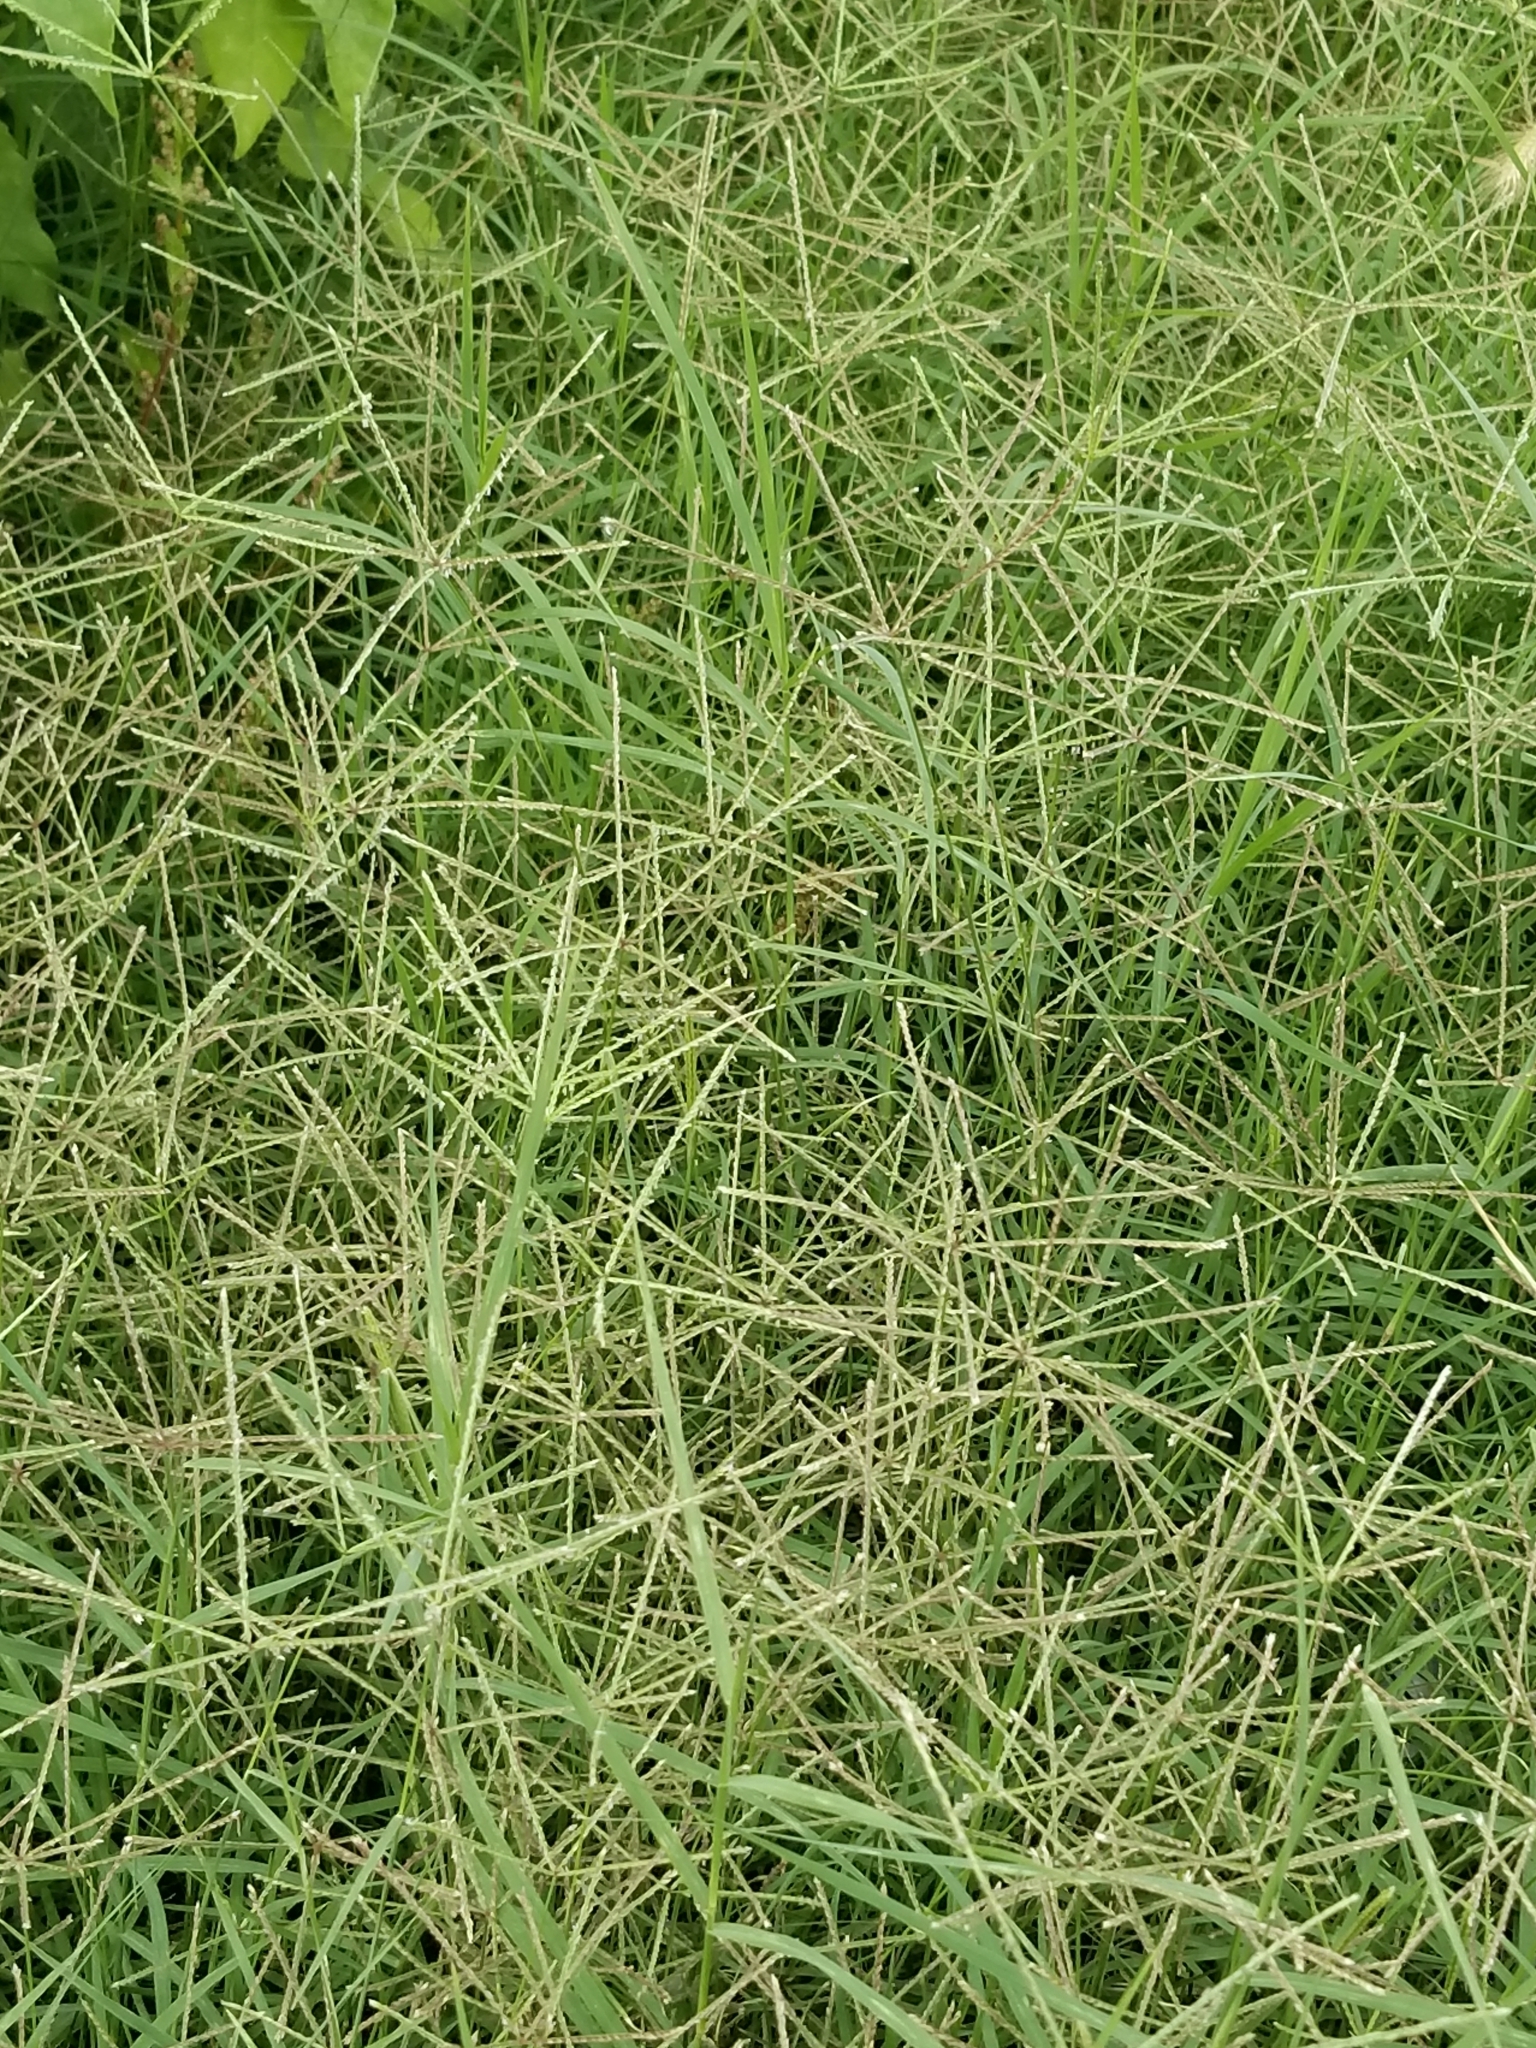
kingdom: Plantae
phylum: Tracheophyta
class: Liliopsida
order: Poales
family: Poaceae
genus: Cynodon
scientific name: Cynodon dactylon
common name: Bermuda grass
